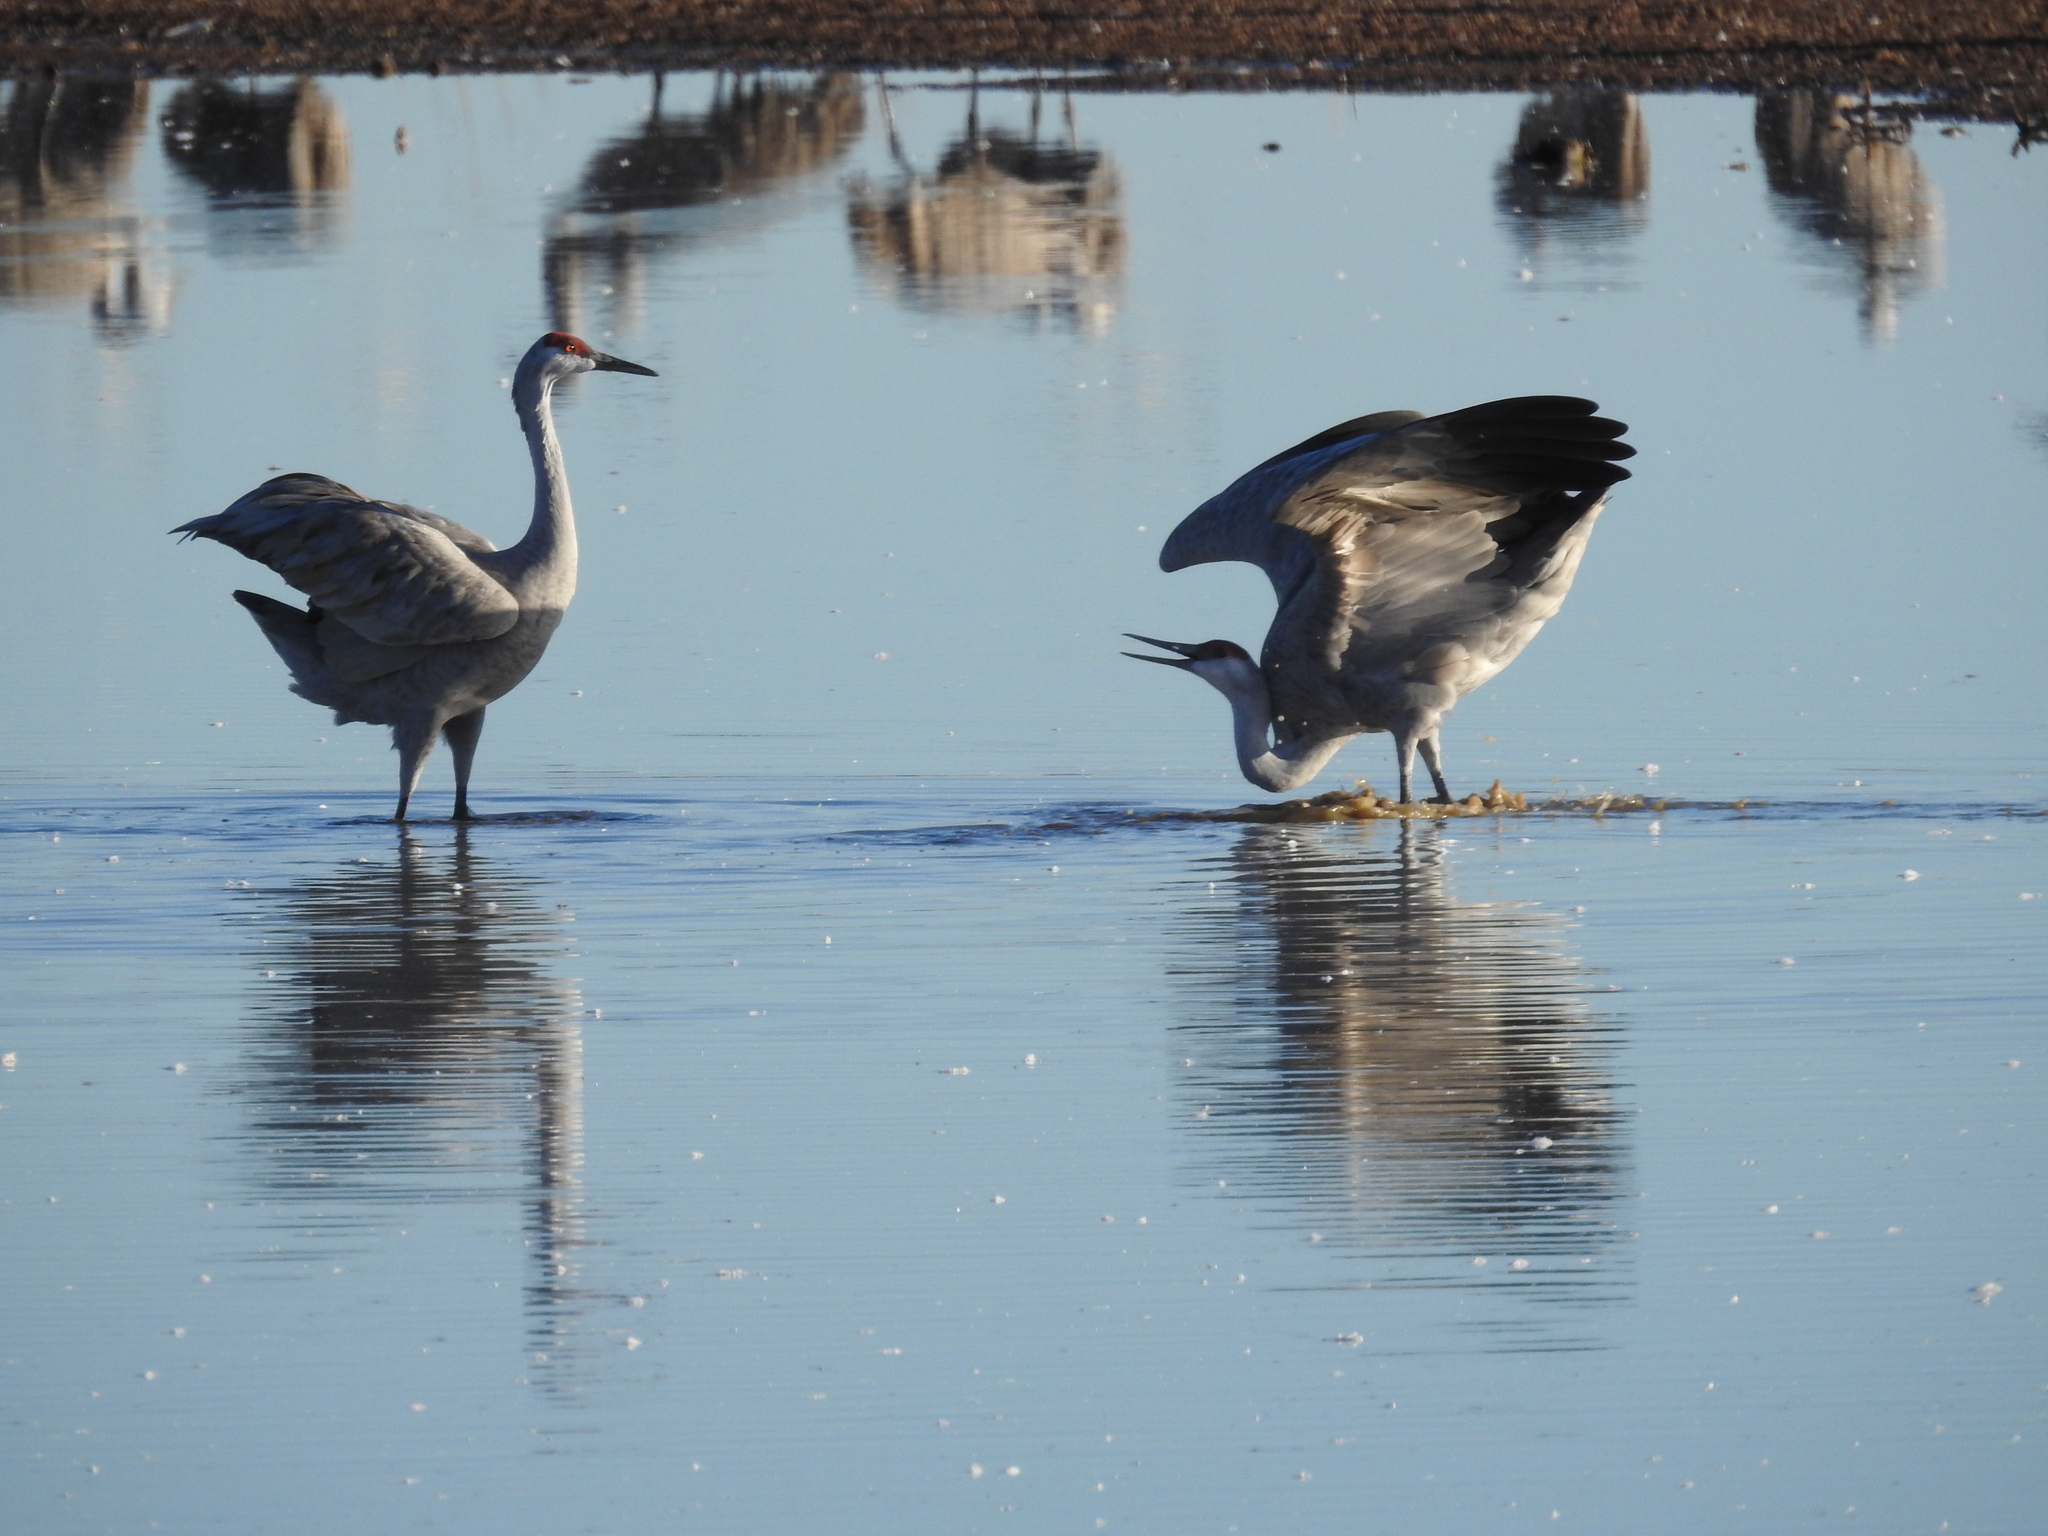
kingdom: Animalia
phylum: Chordata
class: Aves
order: Gruiformes
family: Gruidae
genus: Grus
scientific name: Grus canadensis
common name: Sandhill crane
